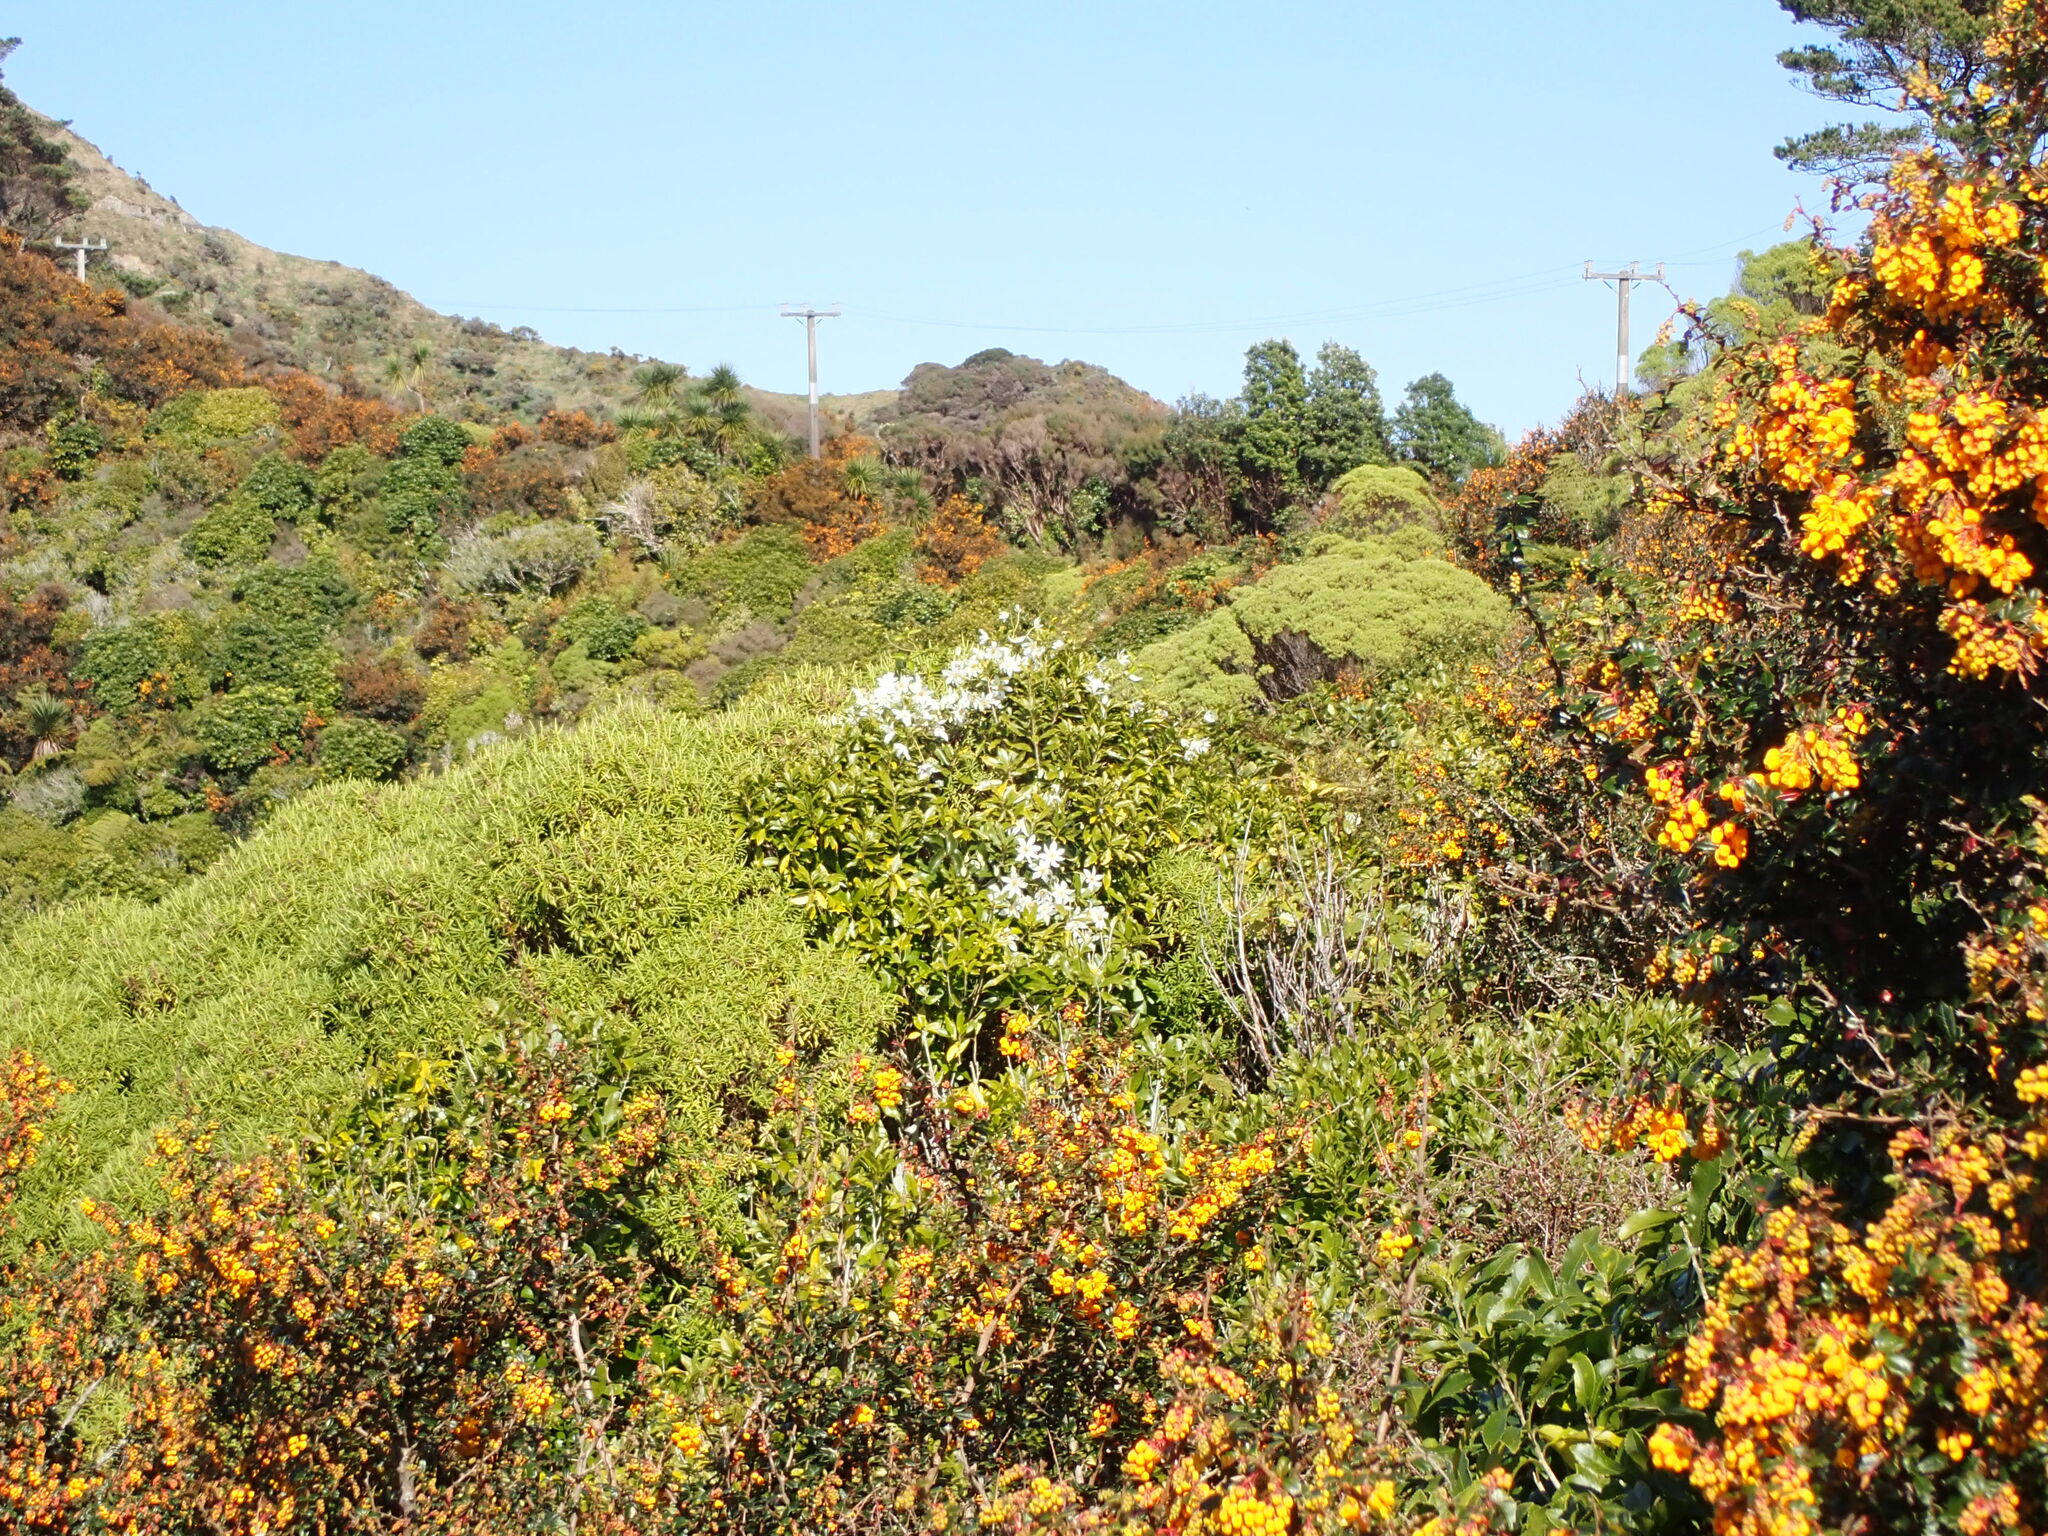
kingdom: Plantae
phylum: Tracheophyta
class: Magnoliopsida
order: Ranunculales
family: Ranunculaceae
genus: Clematis
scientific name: Clematis paniculata
